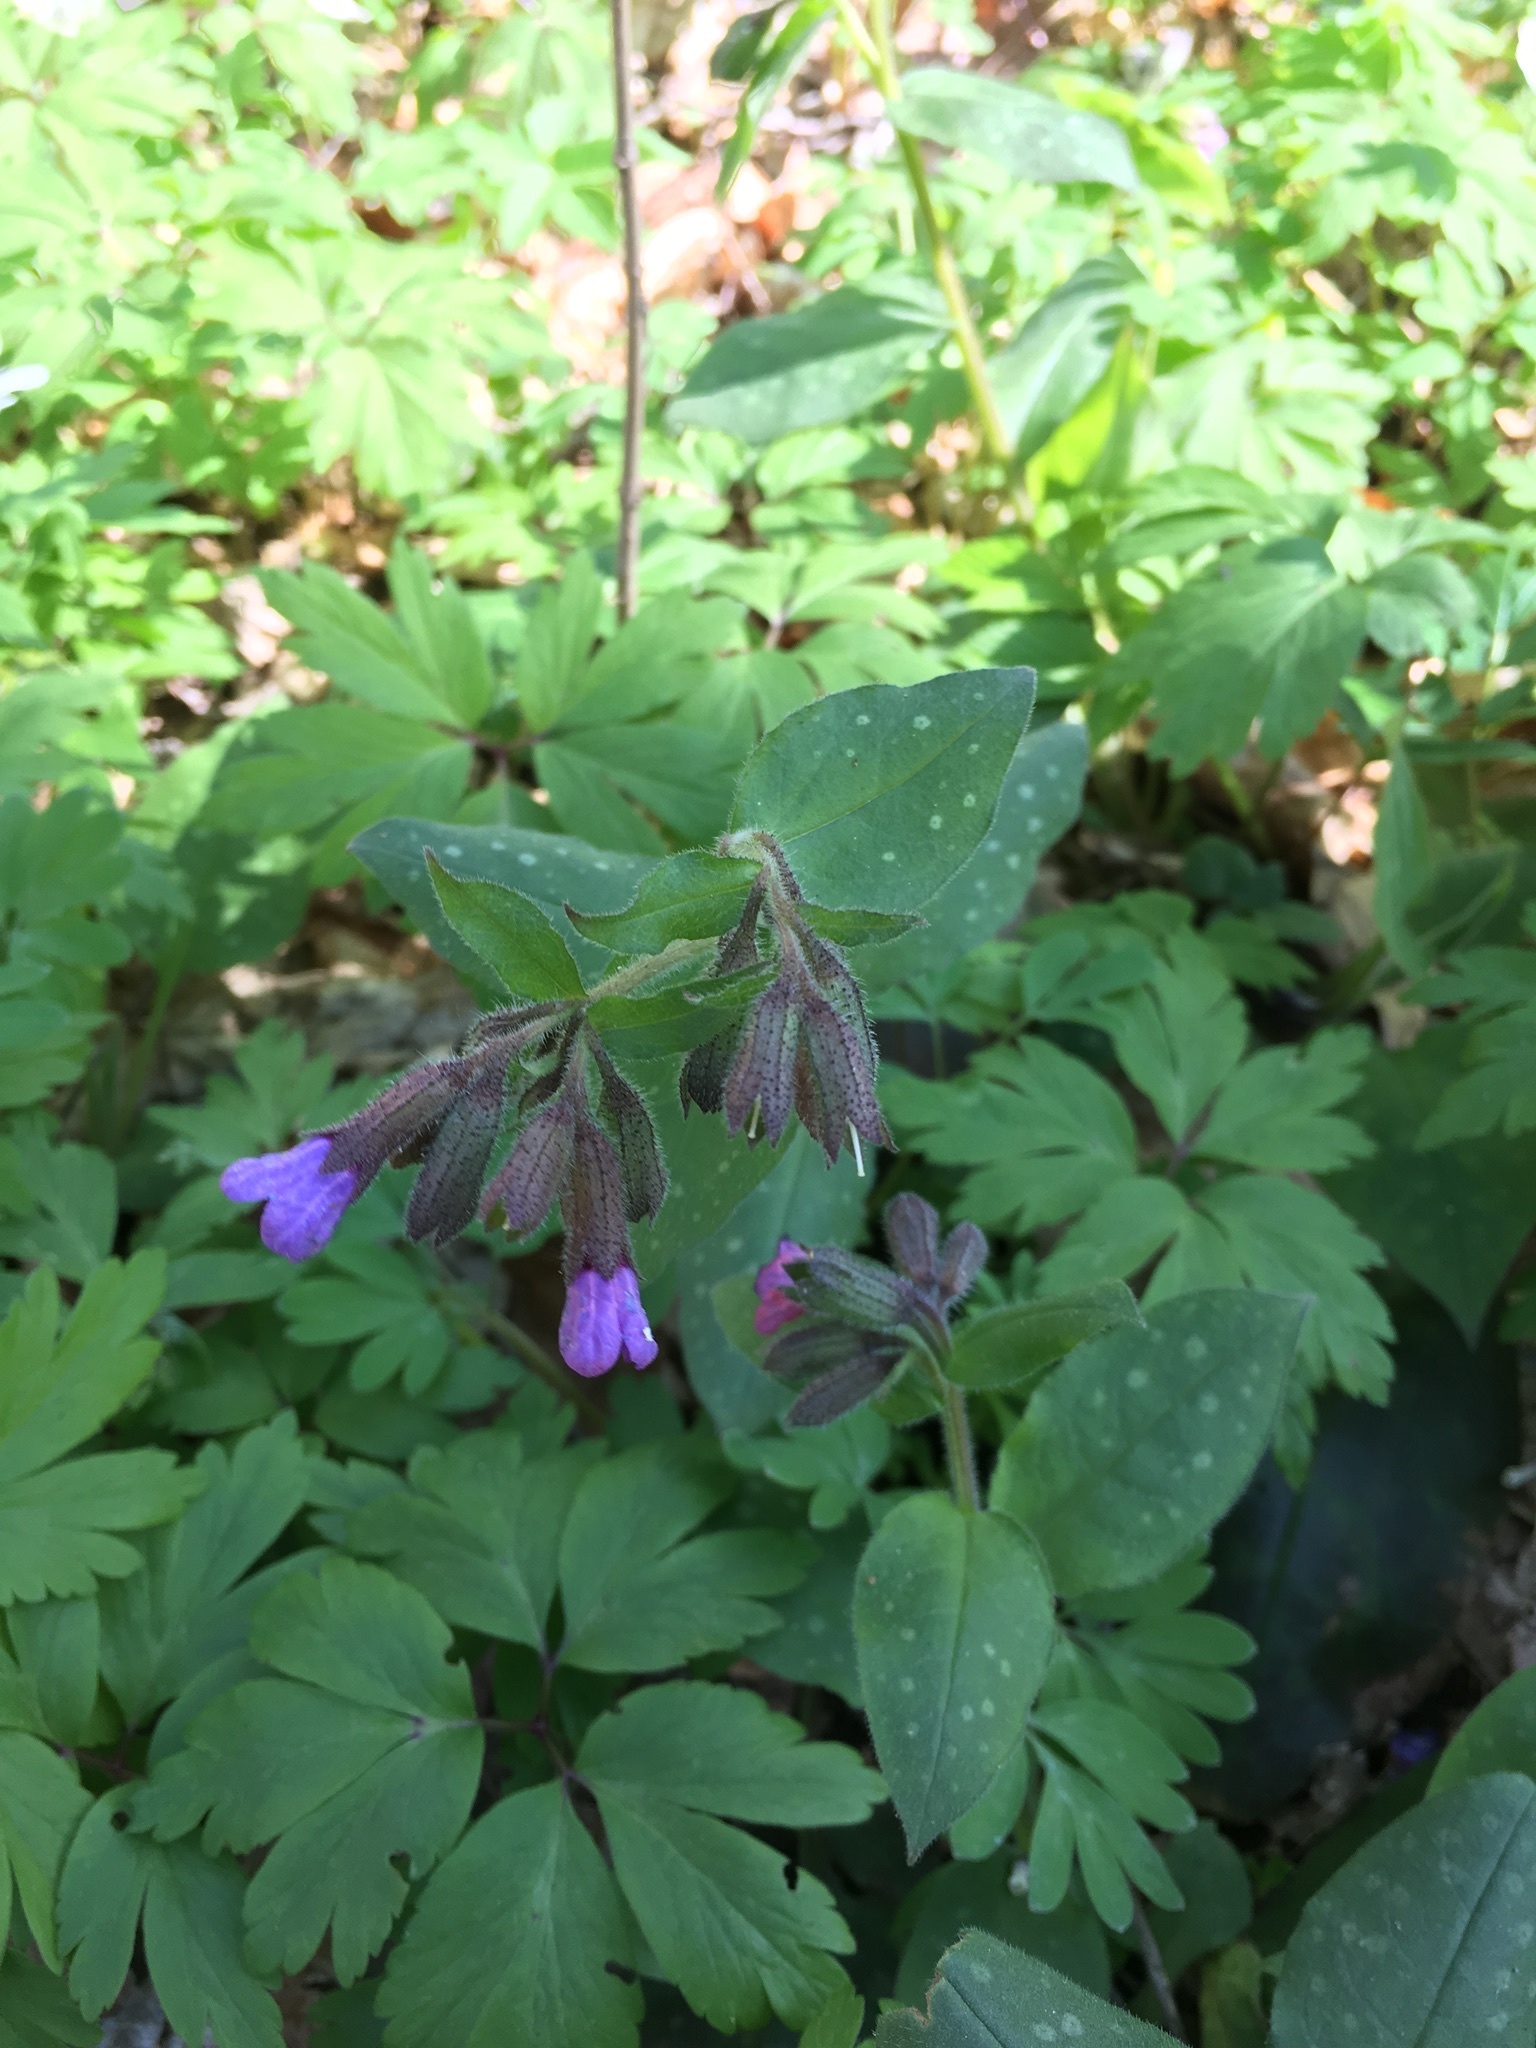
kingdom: Plantae
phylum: Tracheophyta
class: Magnoliopsida
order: Boraginales
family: Boraginaceae
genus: Pulmonaria
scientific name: Pulmonaria officinalis
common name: Lungwort
